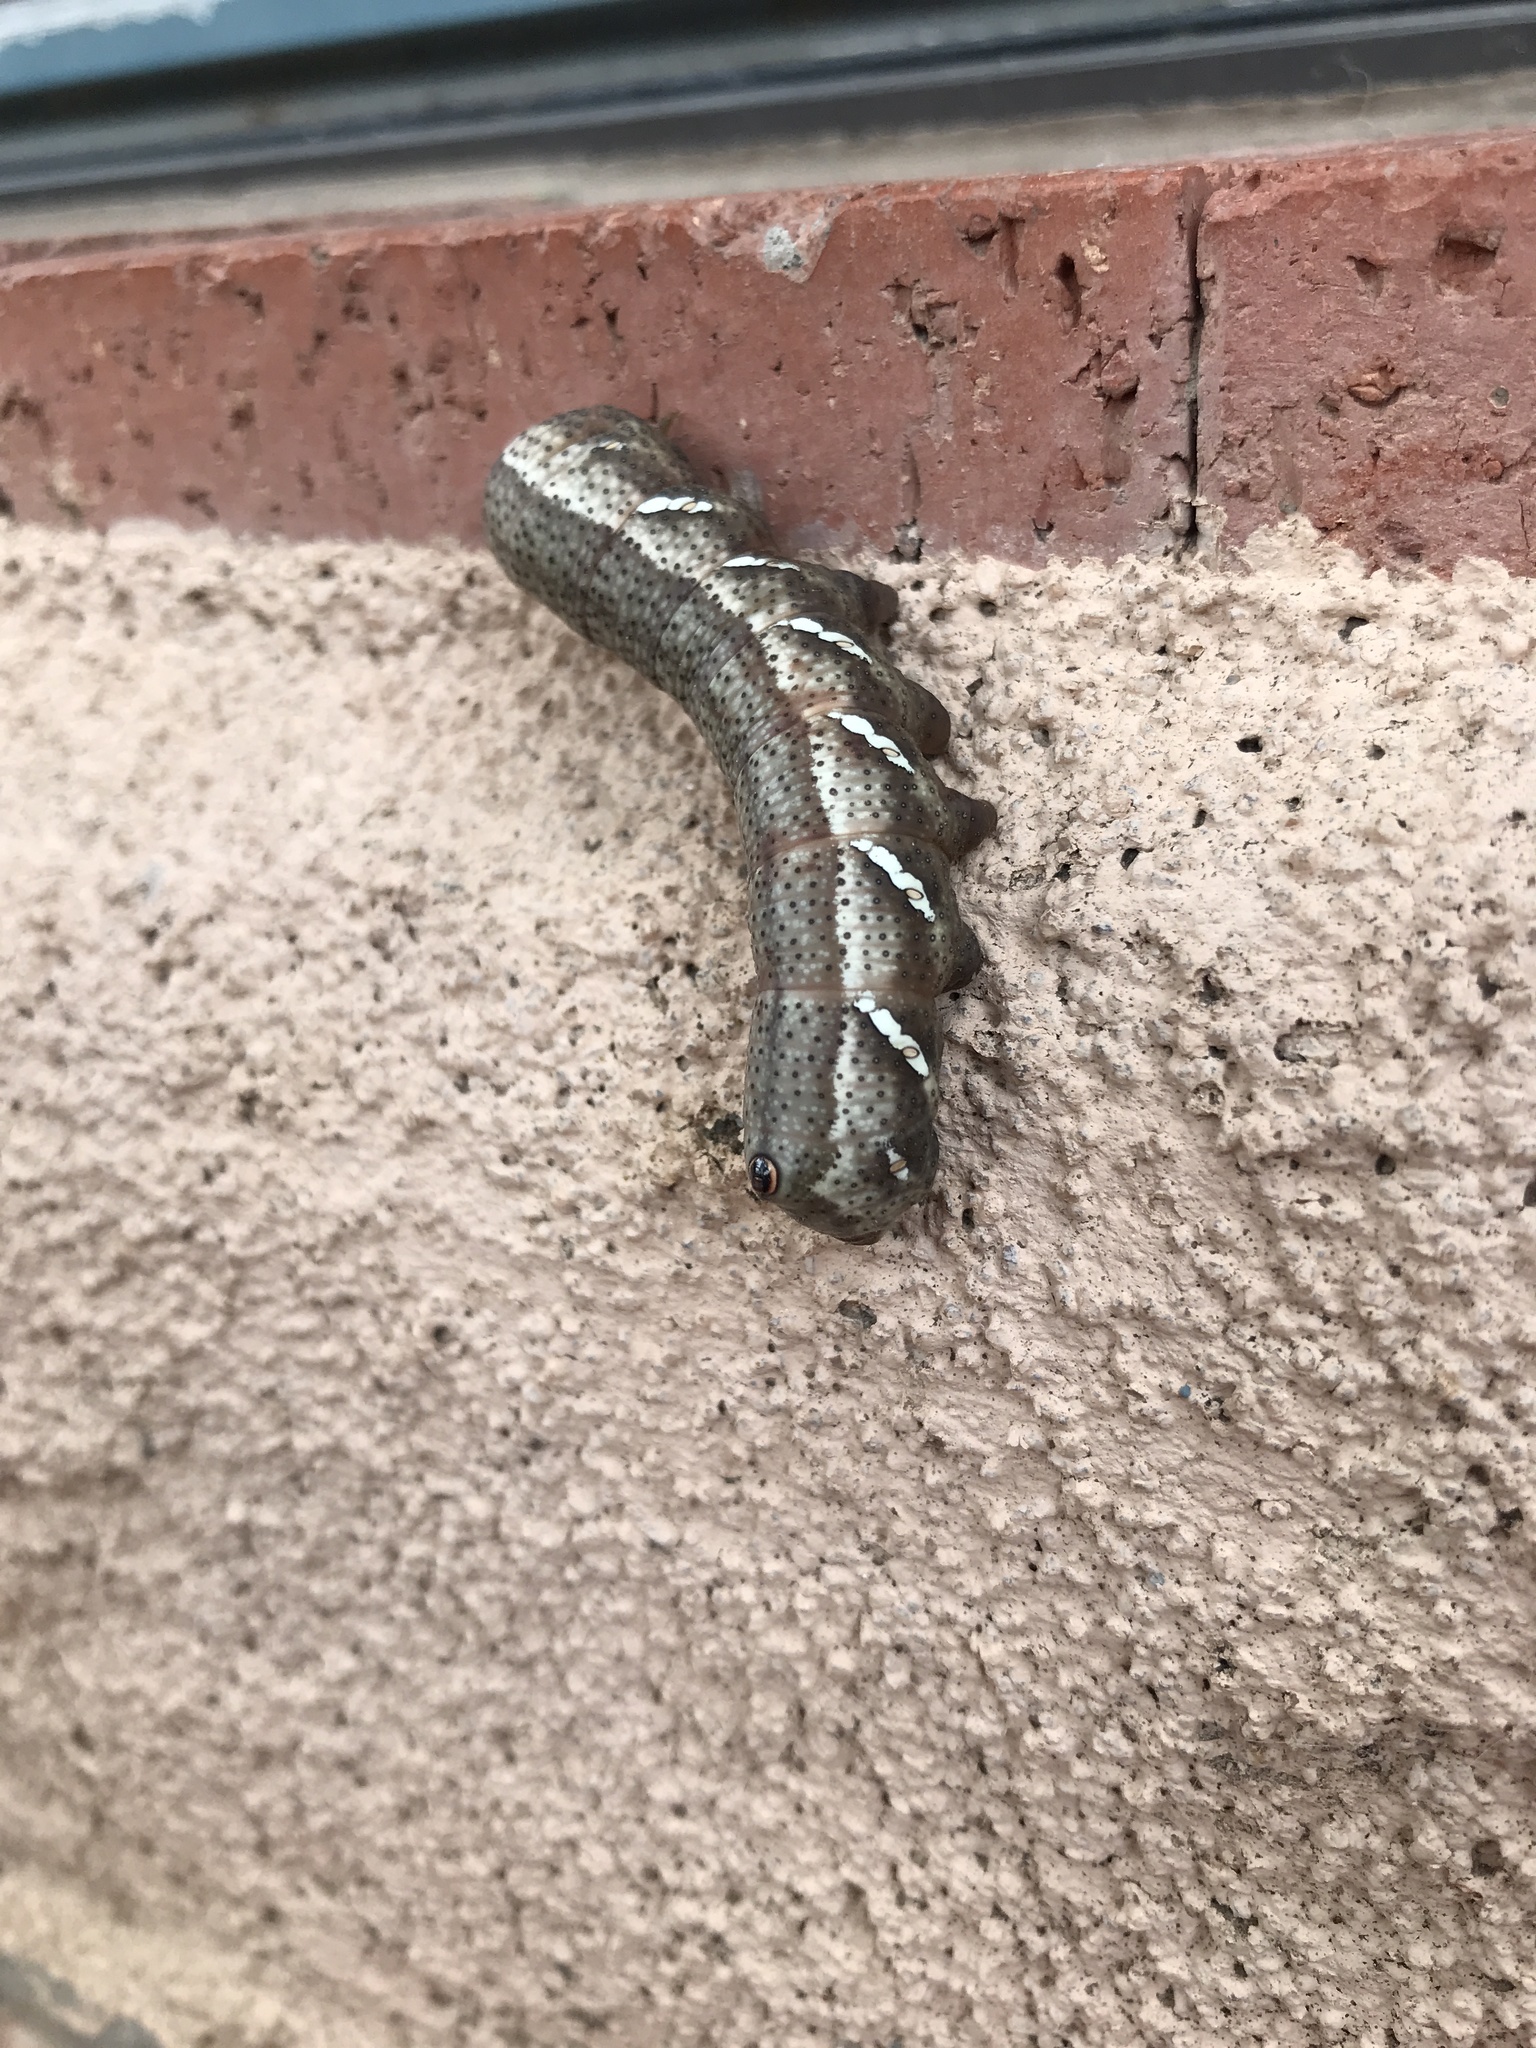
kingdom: Animalia
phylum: Arthropoda
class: Insecta
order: Lepidoptera
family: Sphingidae
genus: Eumorpha
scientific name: Eumorpha achemon
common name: Achemon sphinx
